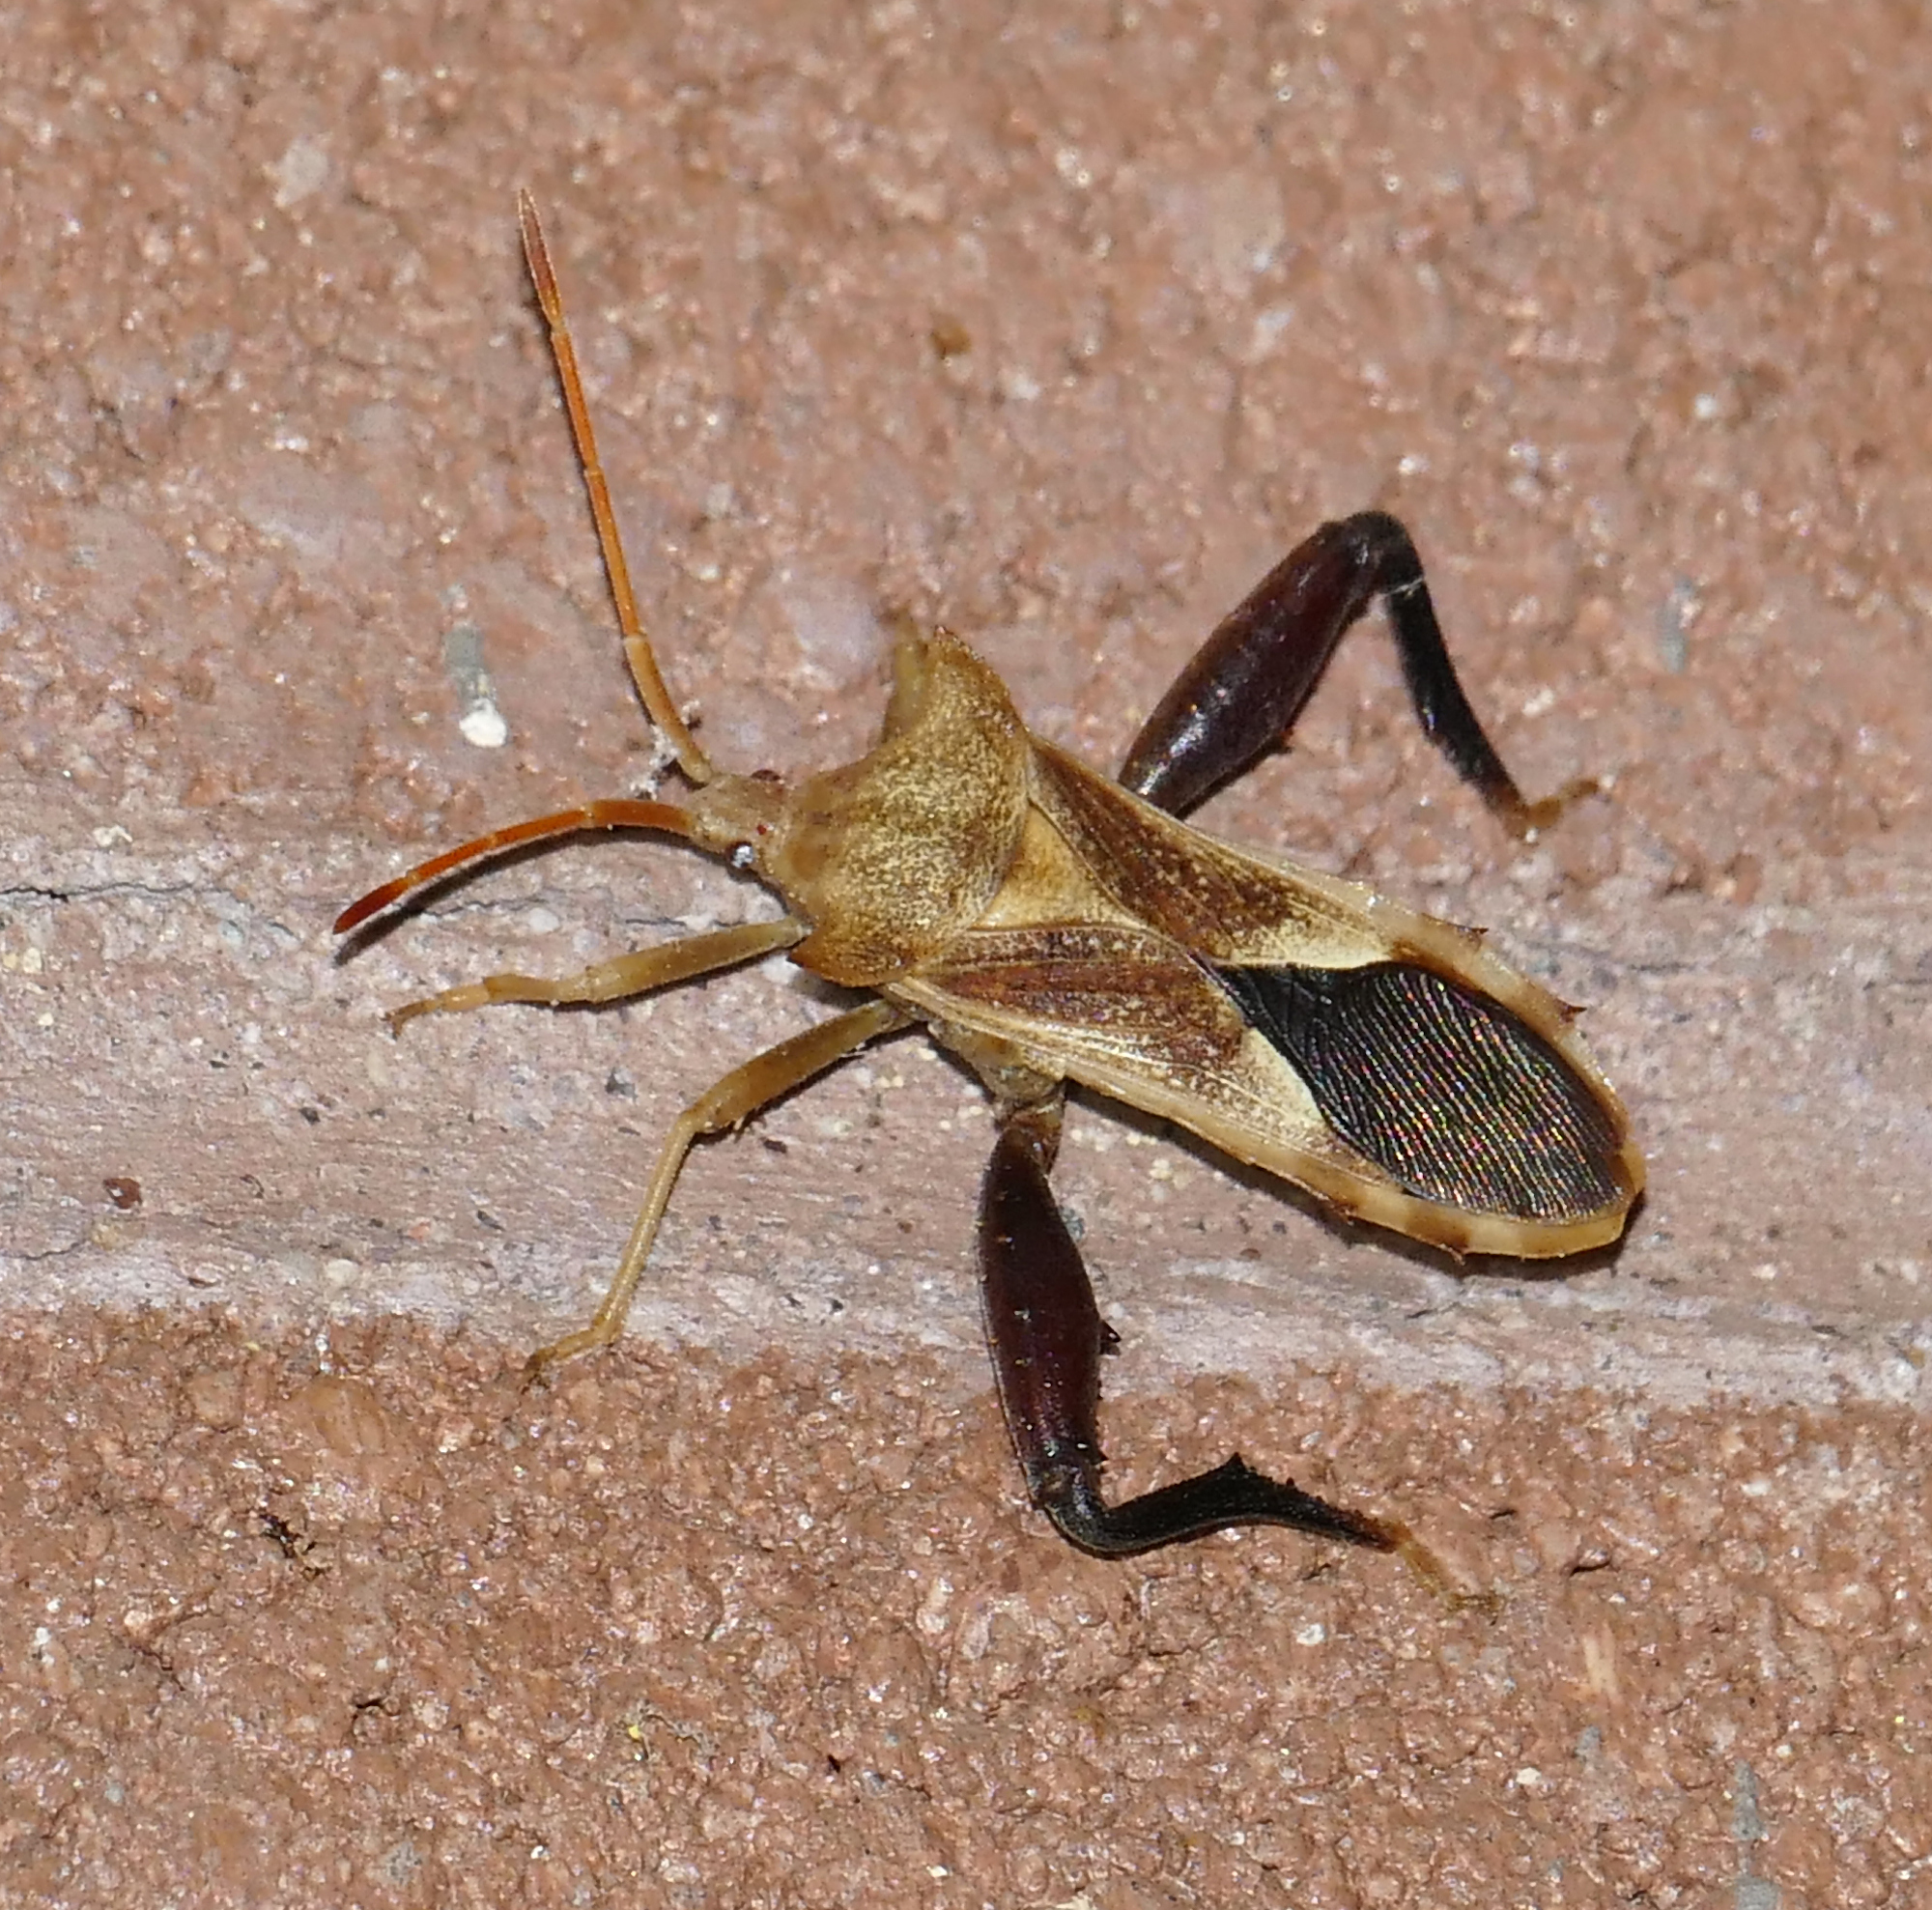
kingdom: Animalia
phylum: Arthropoda
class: Insecta
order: Hemiptera
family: Coreidae
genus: Mozena
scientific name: Mozena arizonensis
